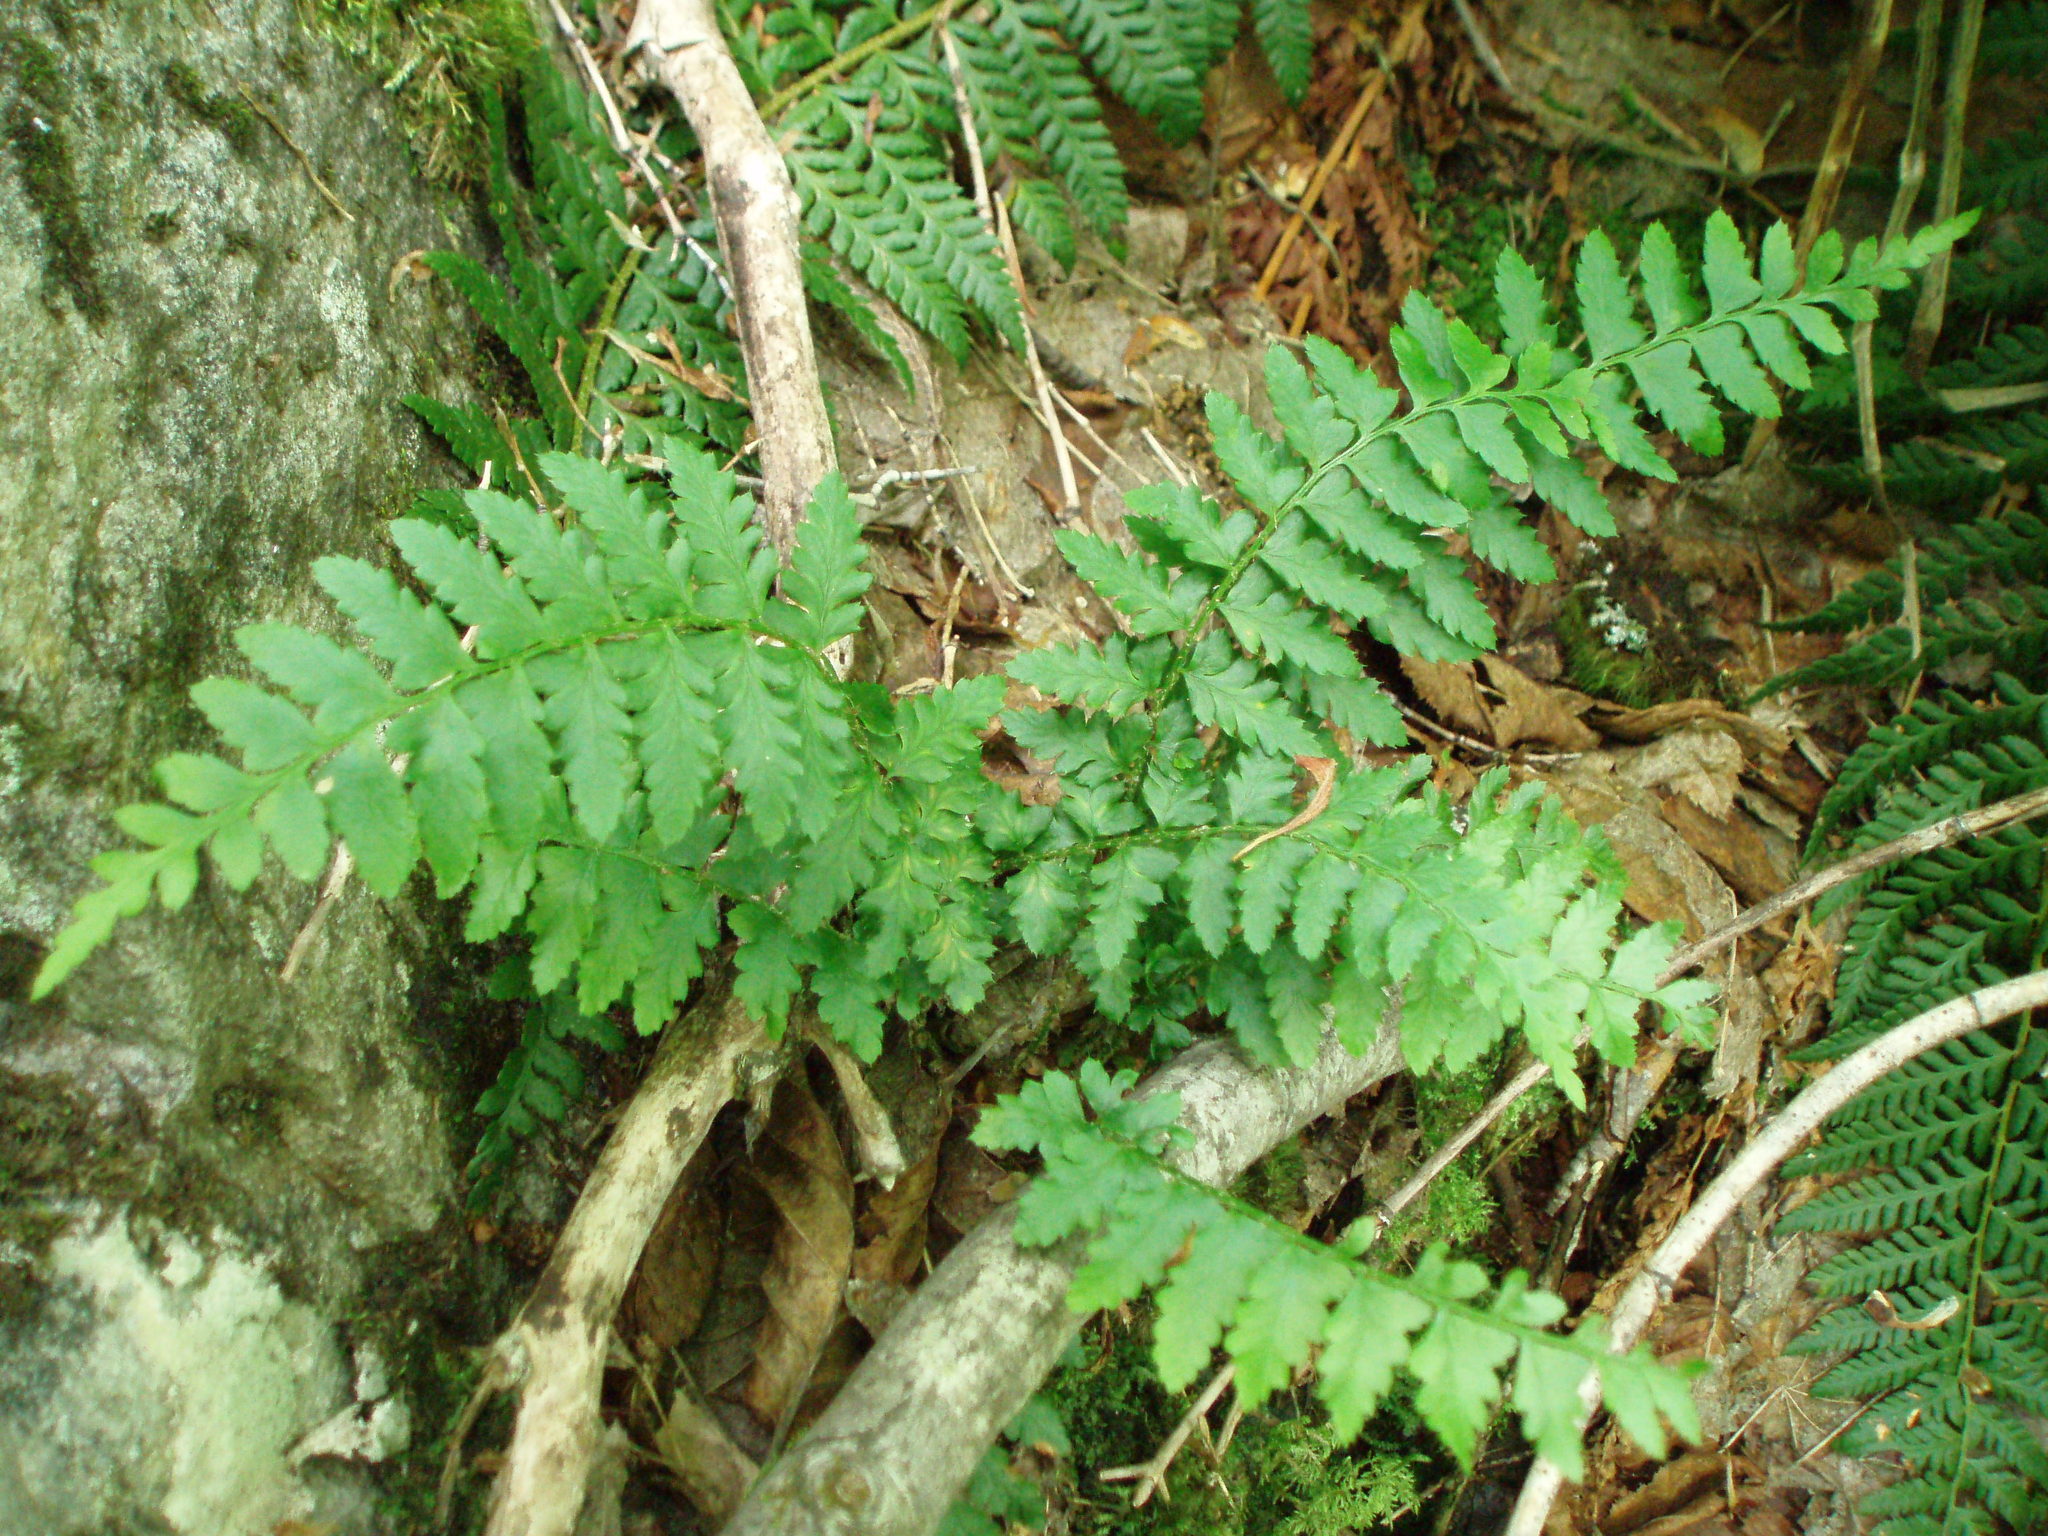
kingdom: Plantae
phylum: Tracheophyta
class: Polypodiopsida
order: Polypodiales
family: Dryopteridaceae
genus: Polystichum
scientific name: Polystichum andersonii
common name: Anderson's holly fern
